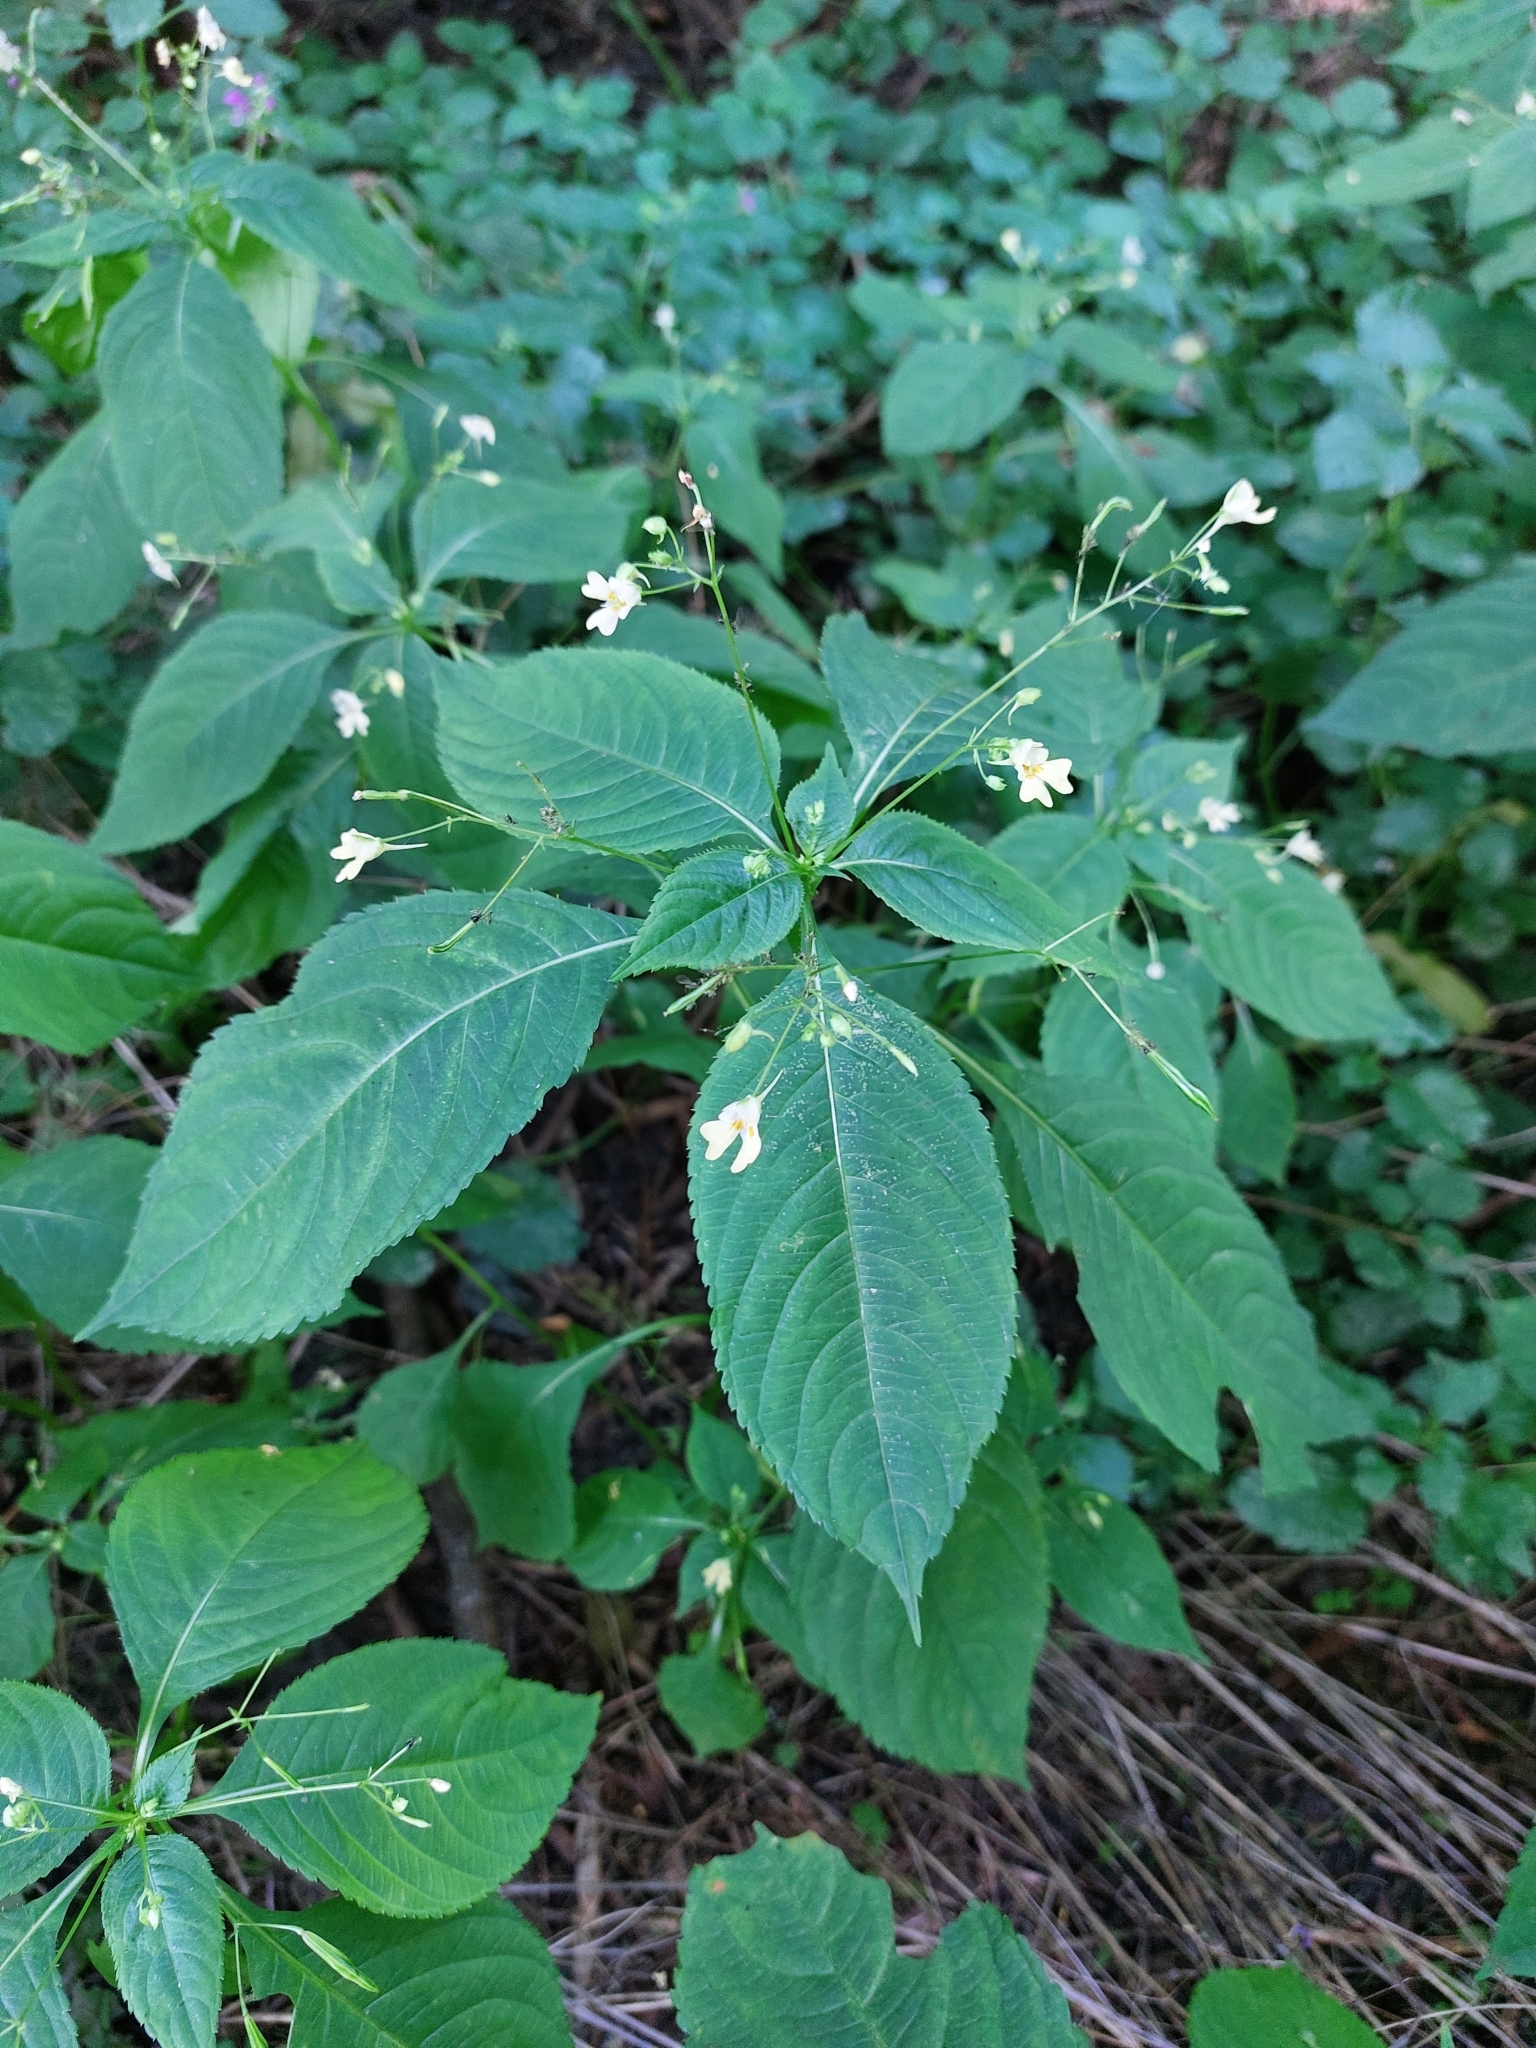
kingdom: Plantae
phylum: Tracheophyta
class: Magnoliopsida
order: Ericales
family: Balsaminaceae
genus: Impatiens
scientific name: Impatiens parviflora
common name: Small balsam
